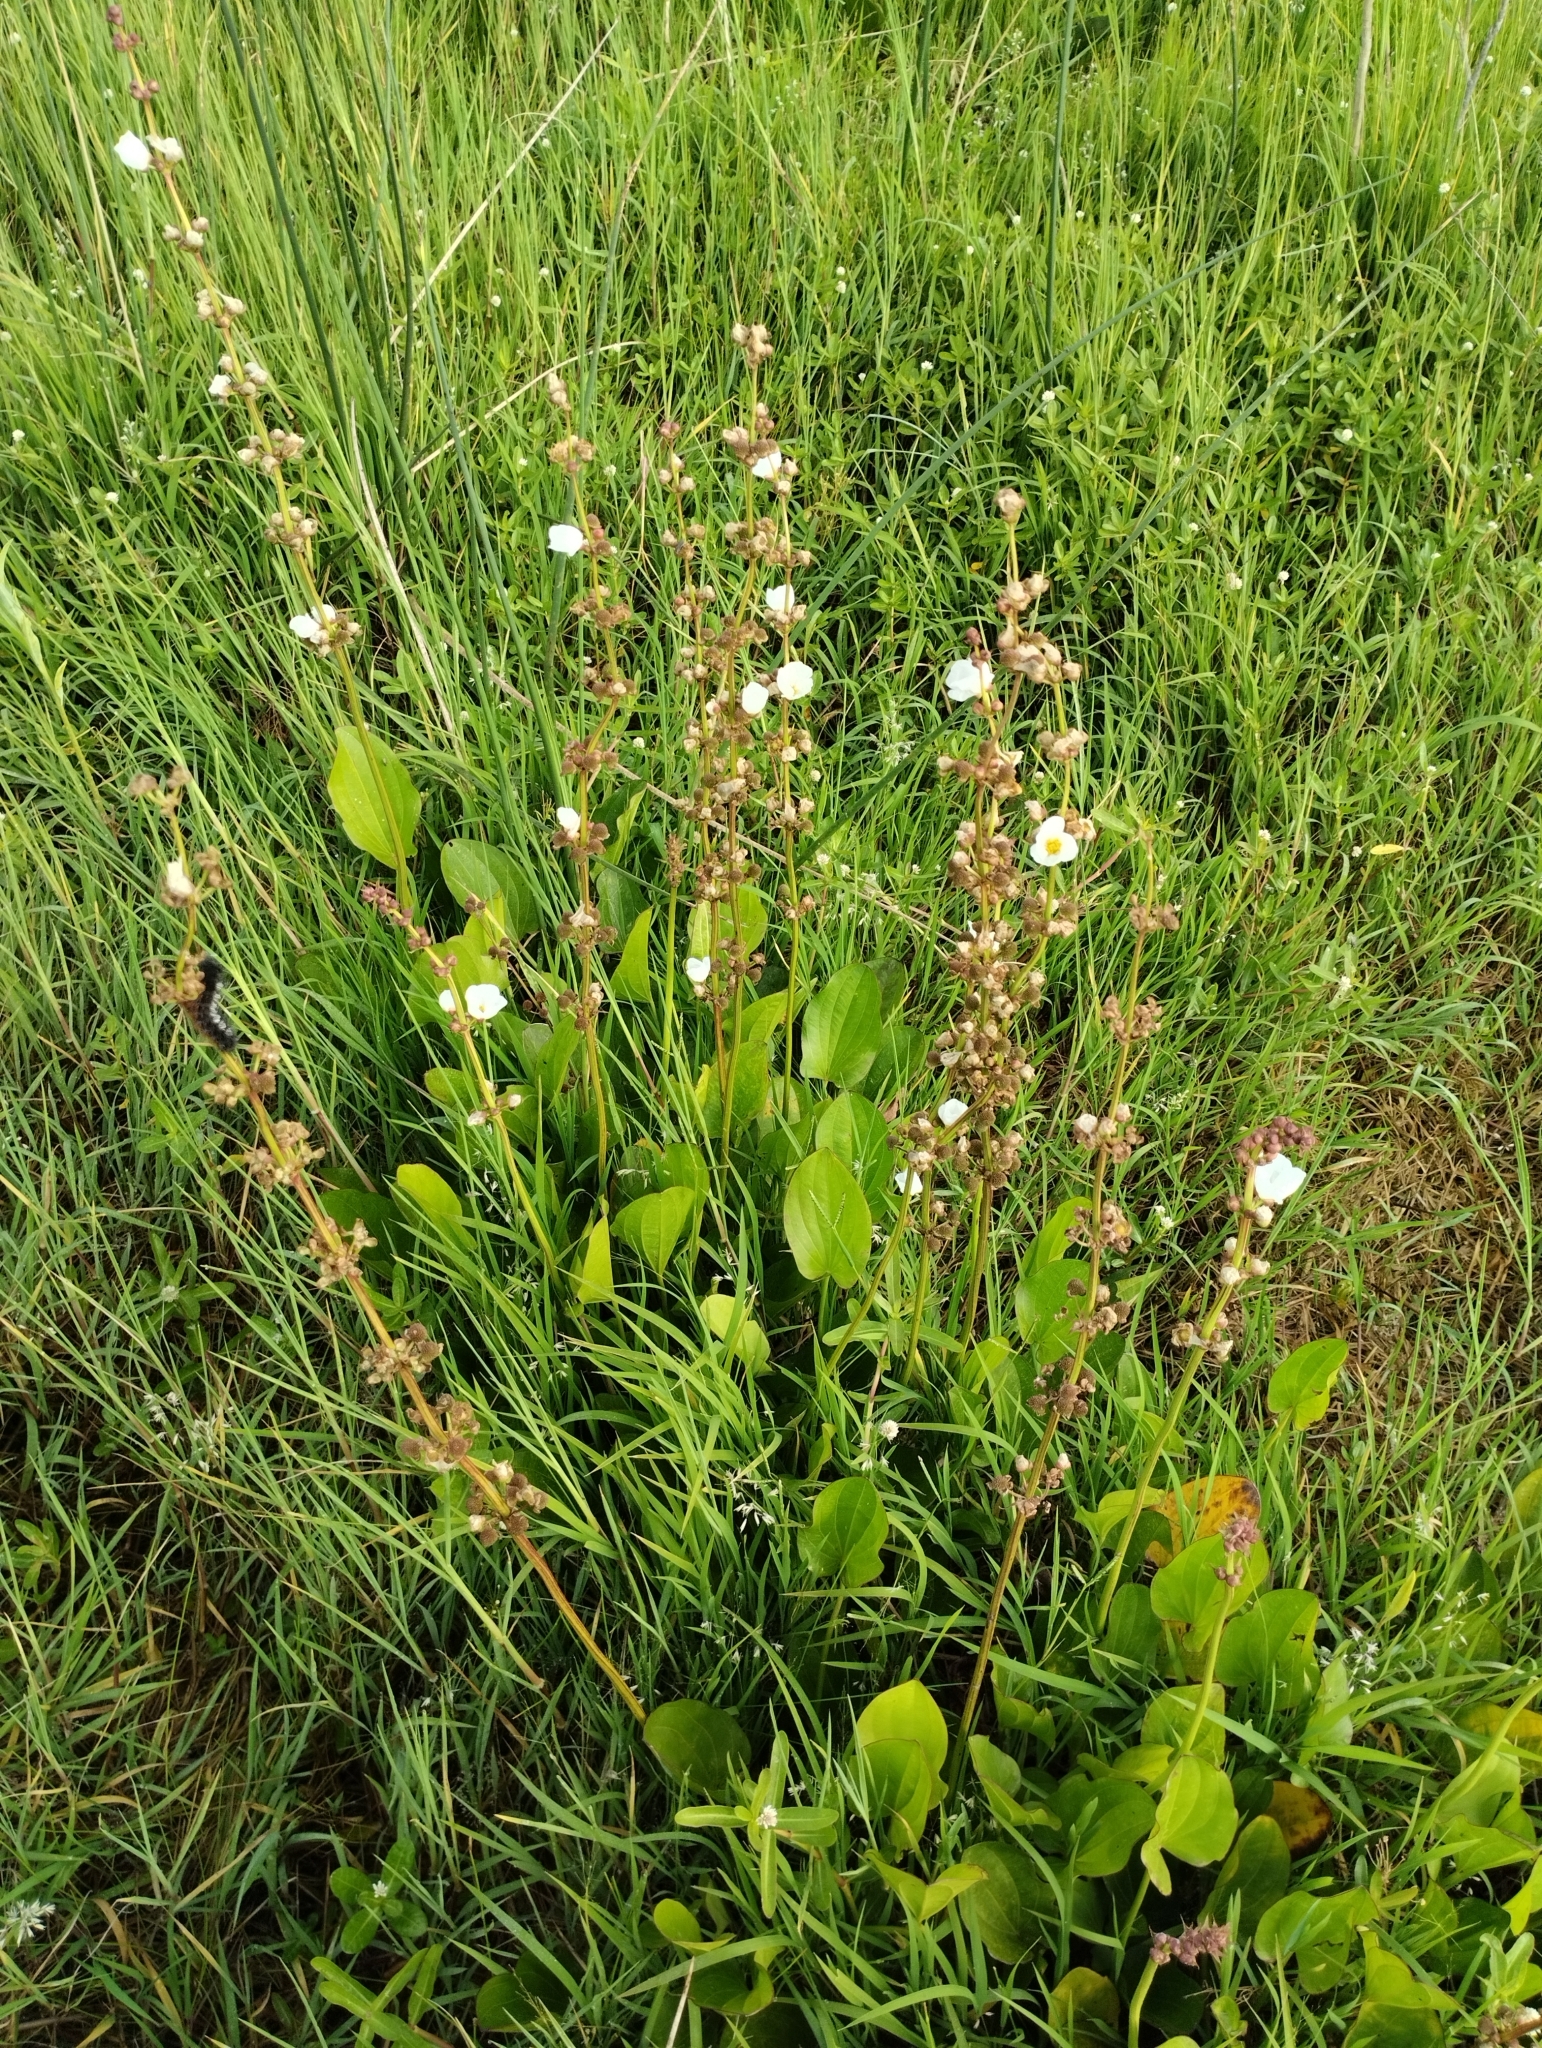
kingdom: Plantae
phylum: Tracheophyta
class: Liliopsida
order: Alismatales
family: Alismataceae
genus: Aquarius
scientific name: Aquarius longiscapus
